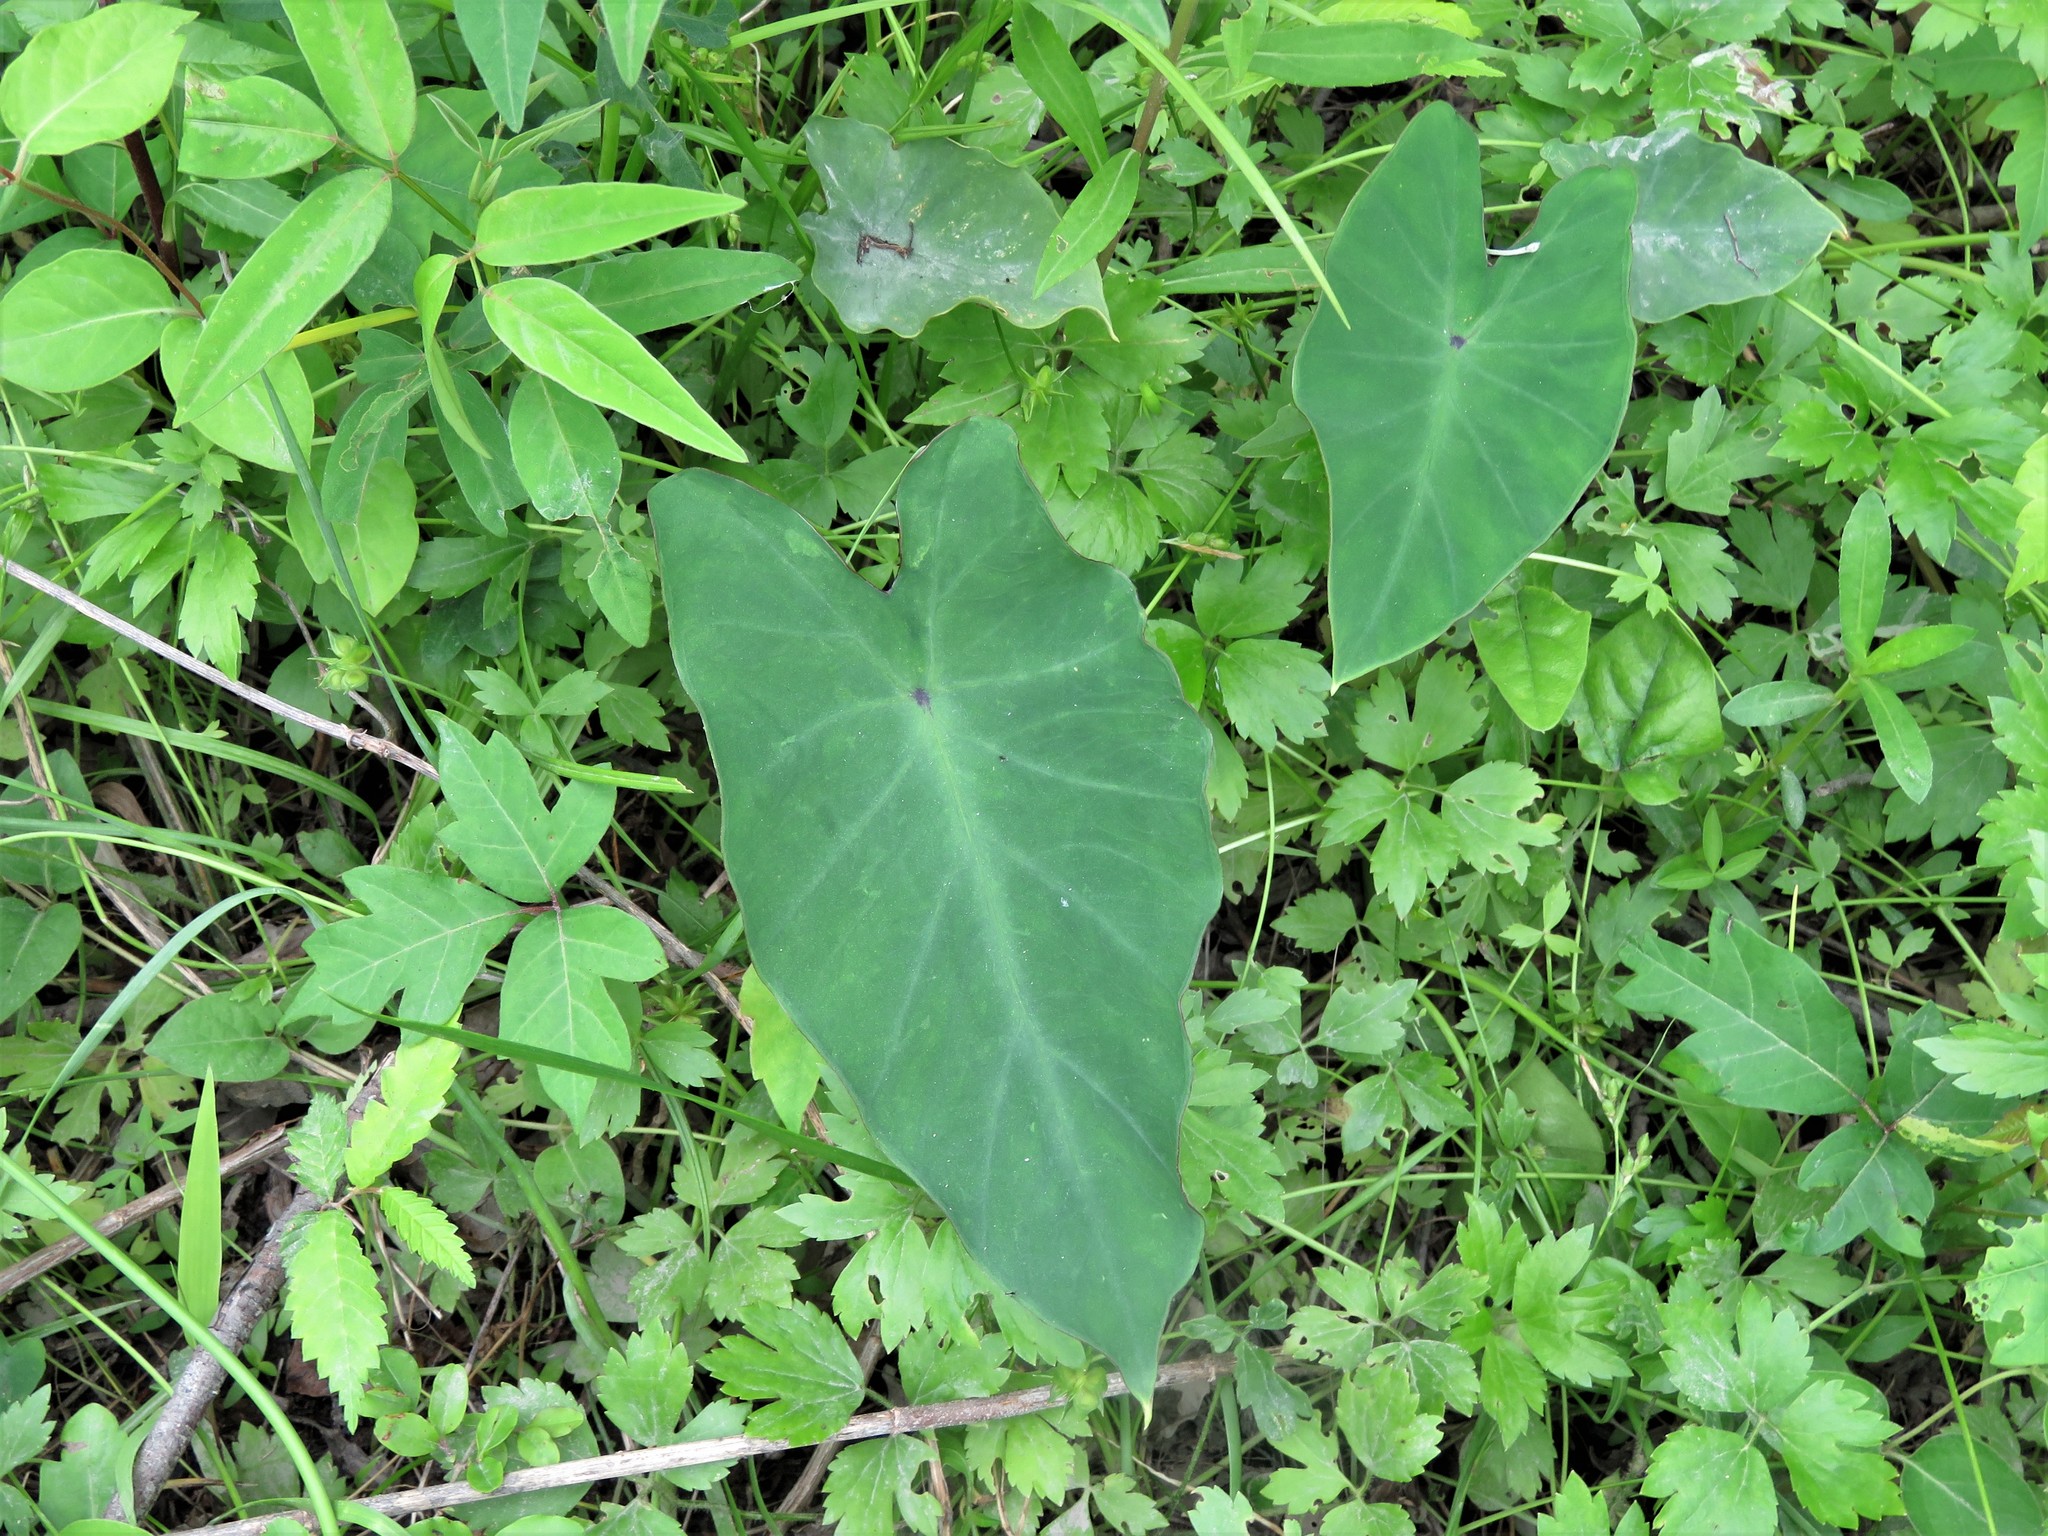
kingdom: Plantae
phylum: Tracheophyta
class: Liliopsida
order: Alismatales
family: Araceae
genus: Colocasia
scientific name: Colocasia esculenta
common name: Taro
